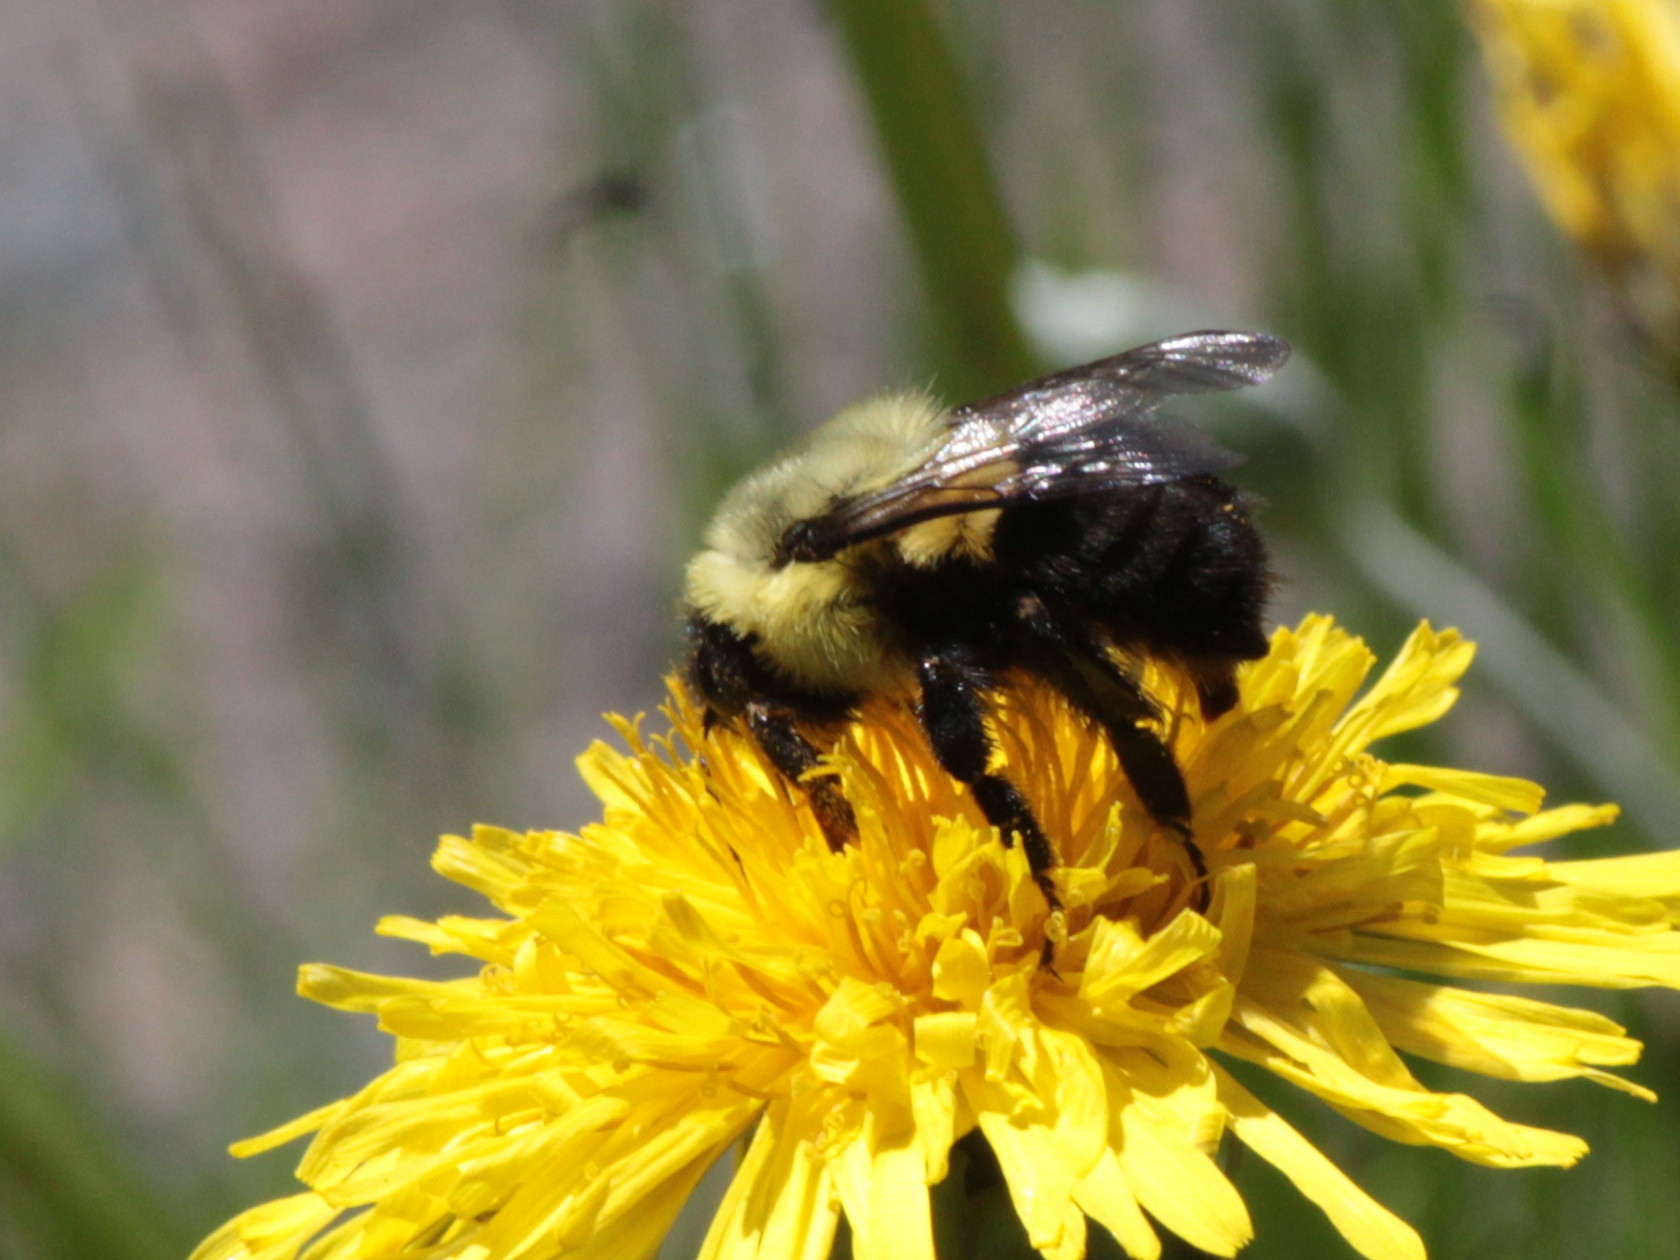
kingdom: Animalia
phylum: Arthropoda
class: Insecta
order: Hymenoptera
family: Apidae
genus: Bombus
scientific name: Bombus impatiens
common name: Common eastern bumble bee
